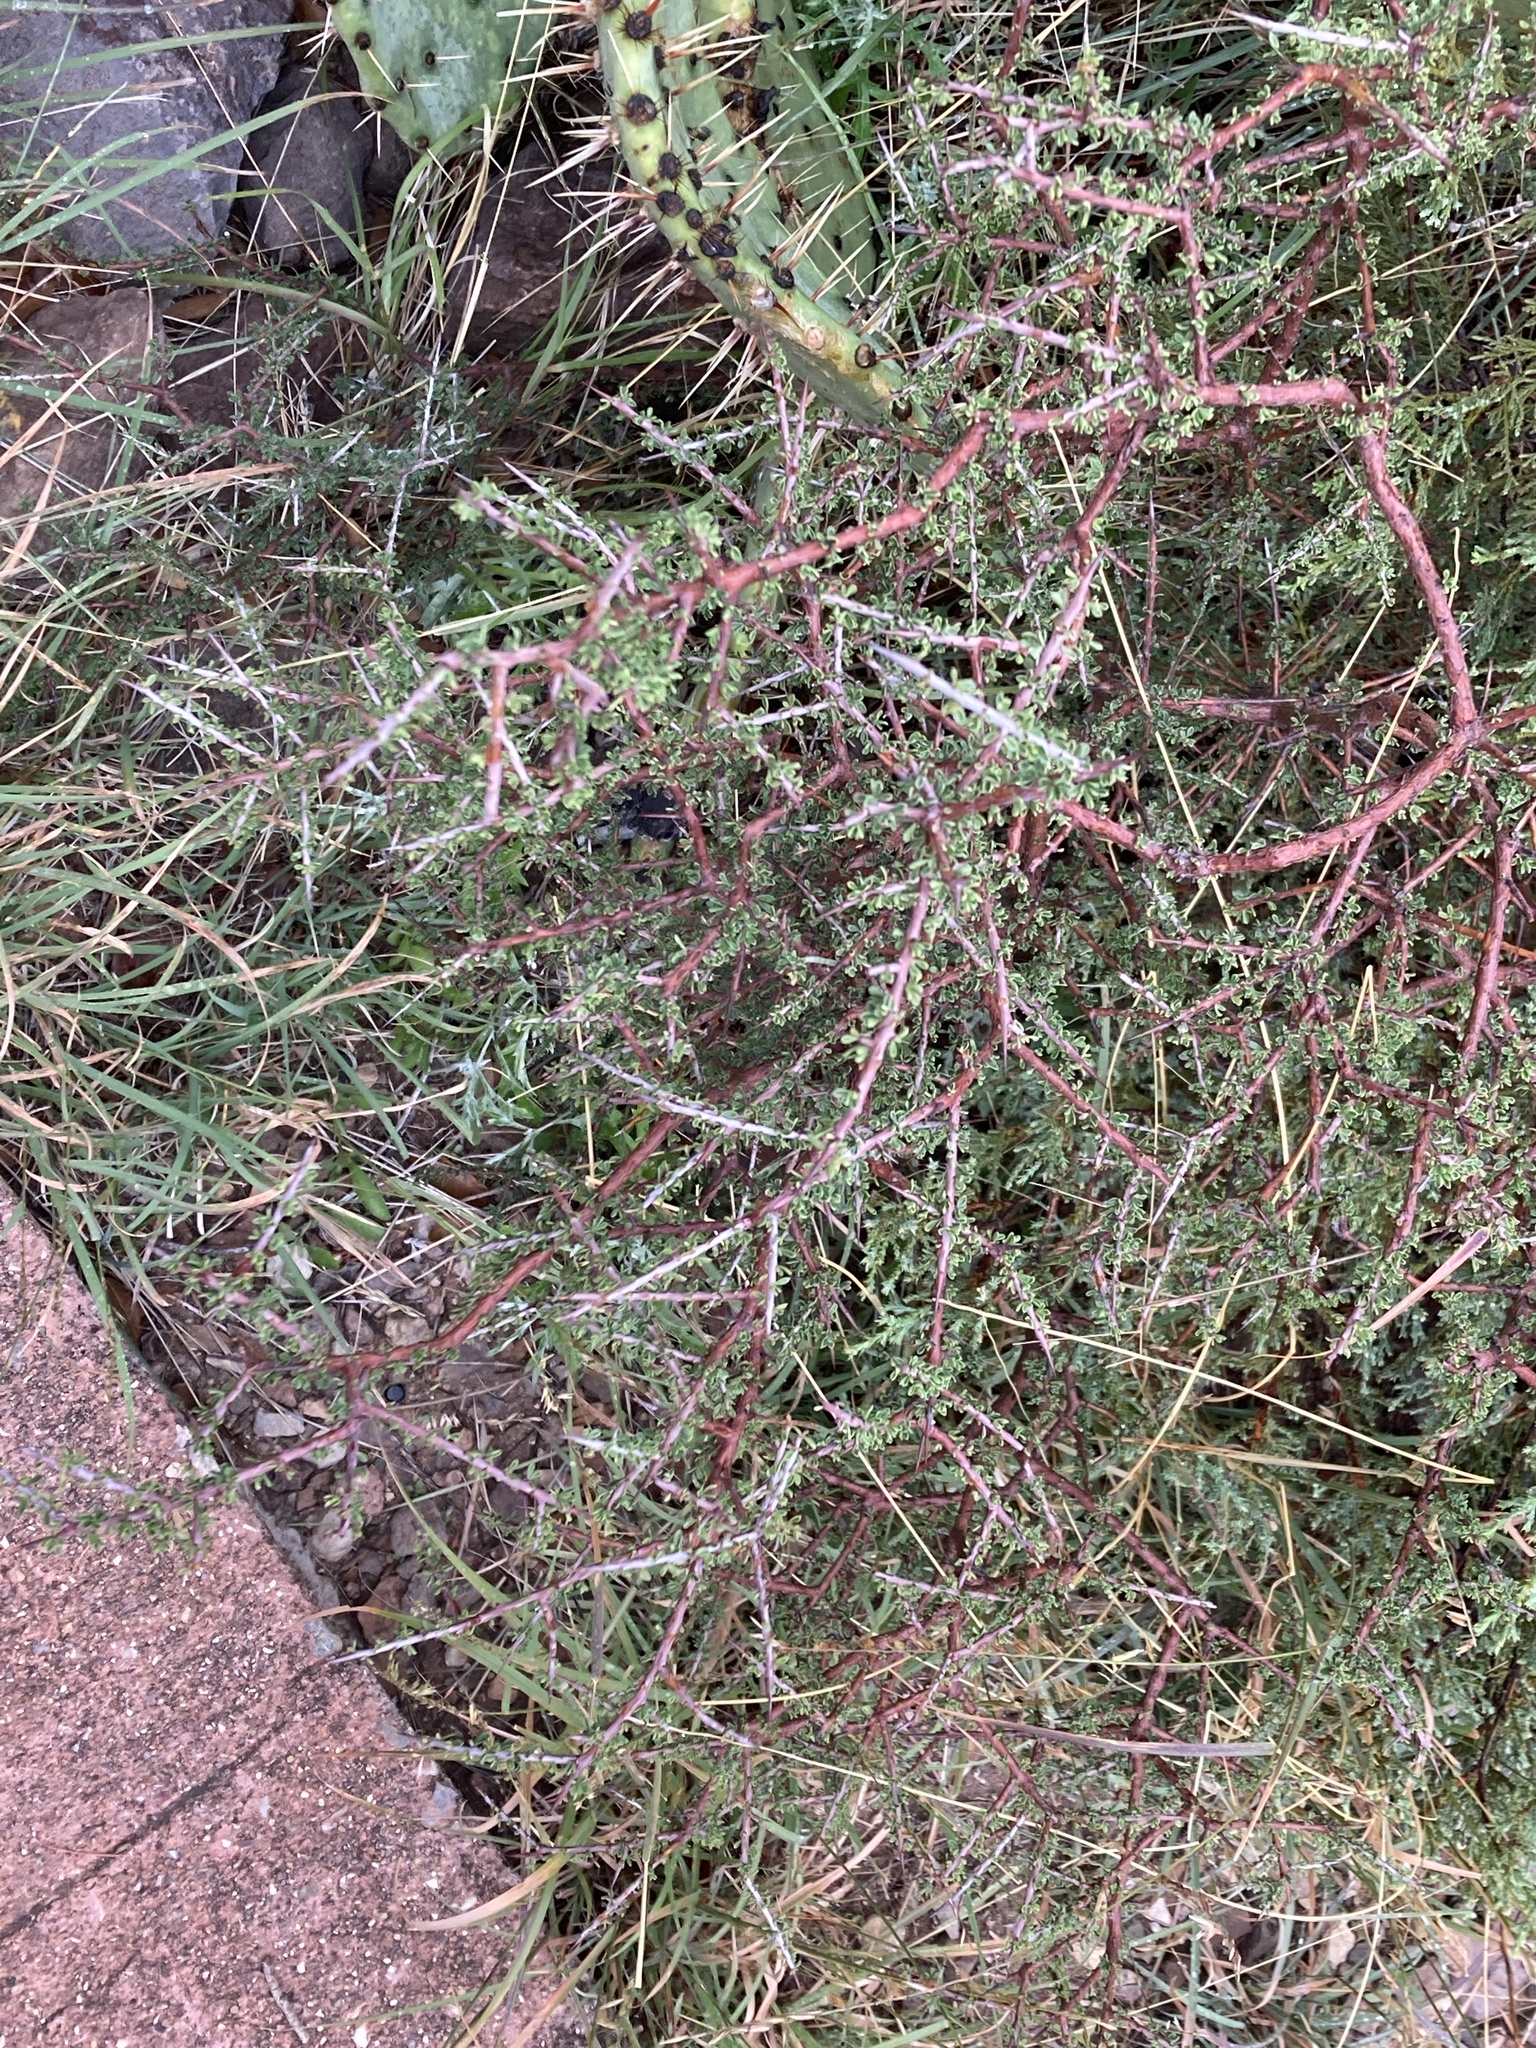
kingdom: Plantae
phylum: Tracheophyta
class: Magnoliopsida
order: Rosales
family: Rhamnaceae
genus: Condalia
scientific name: Condalia warnockii
